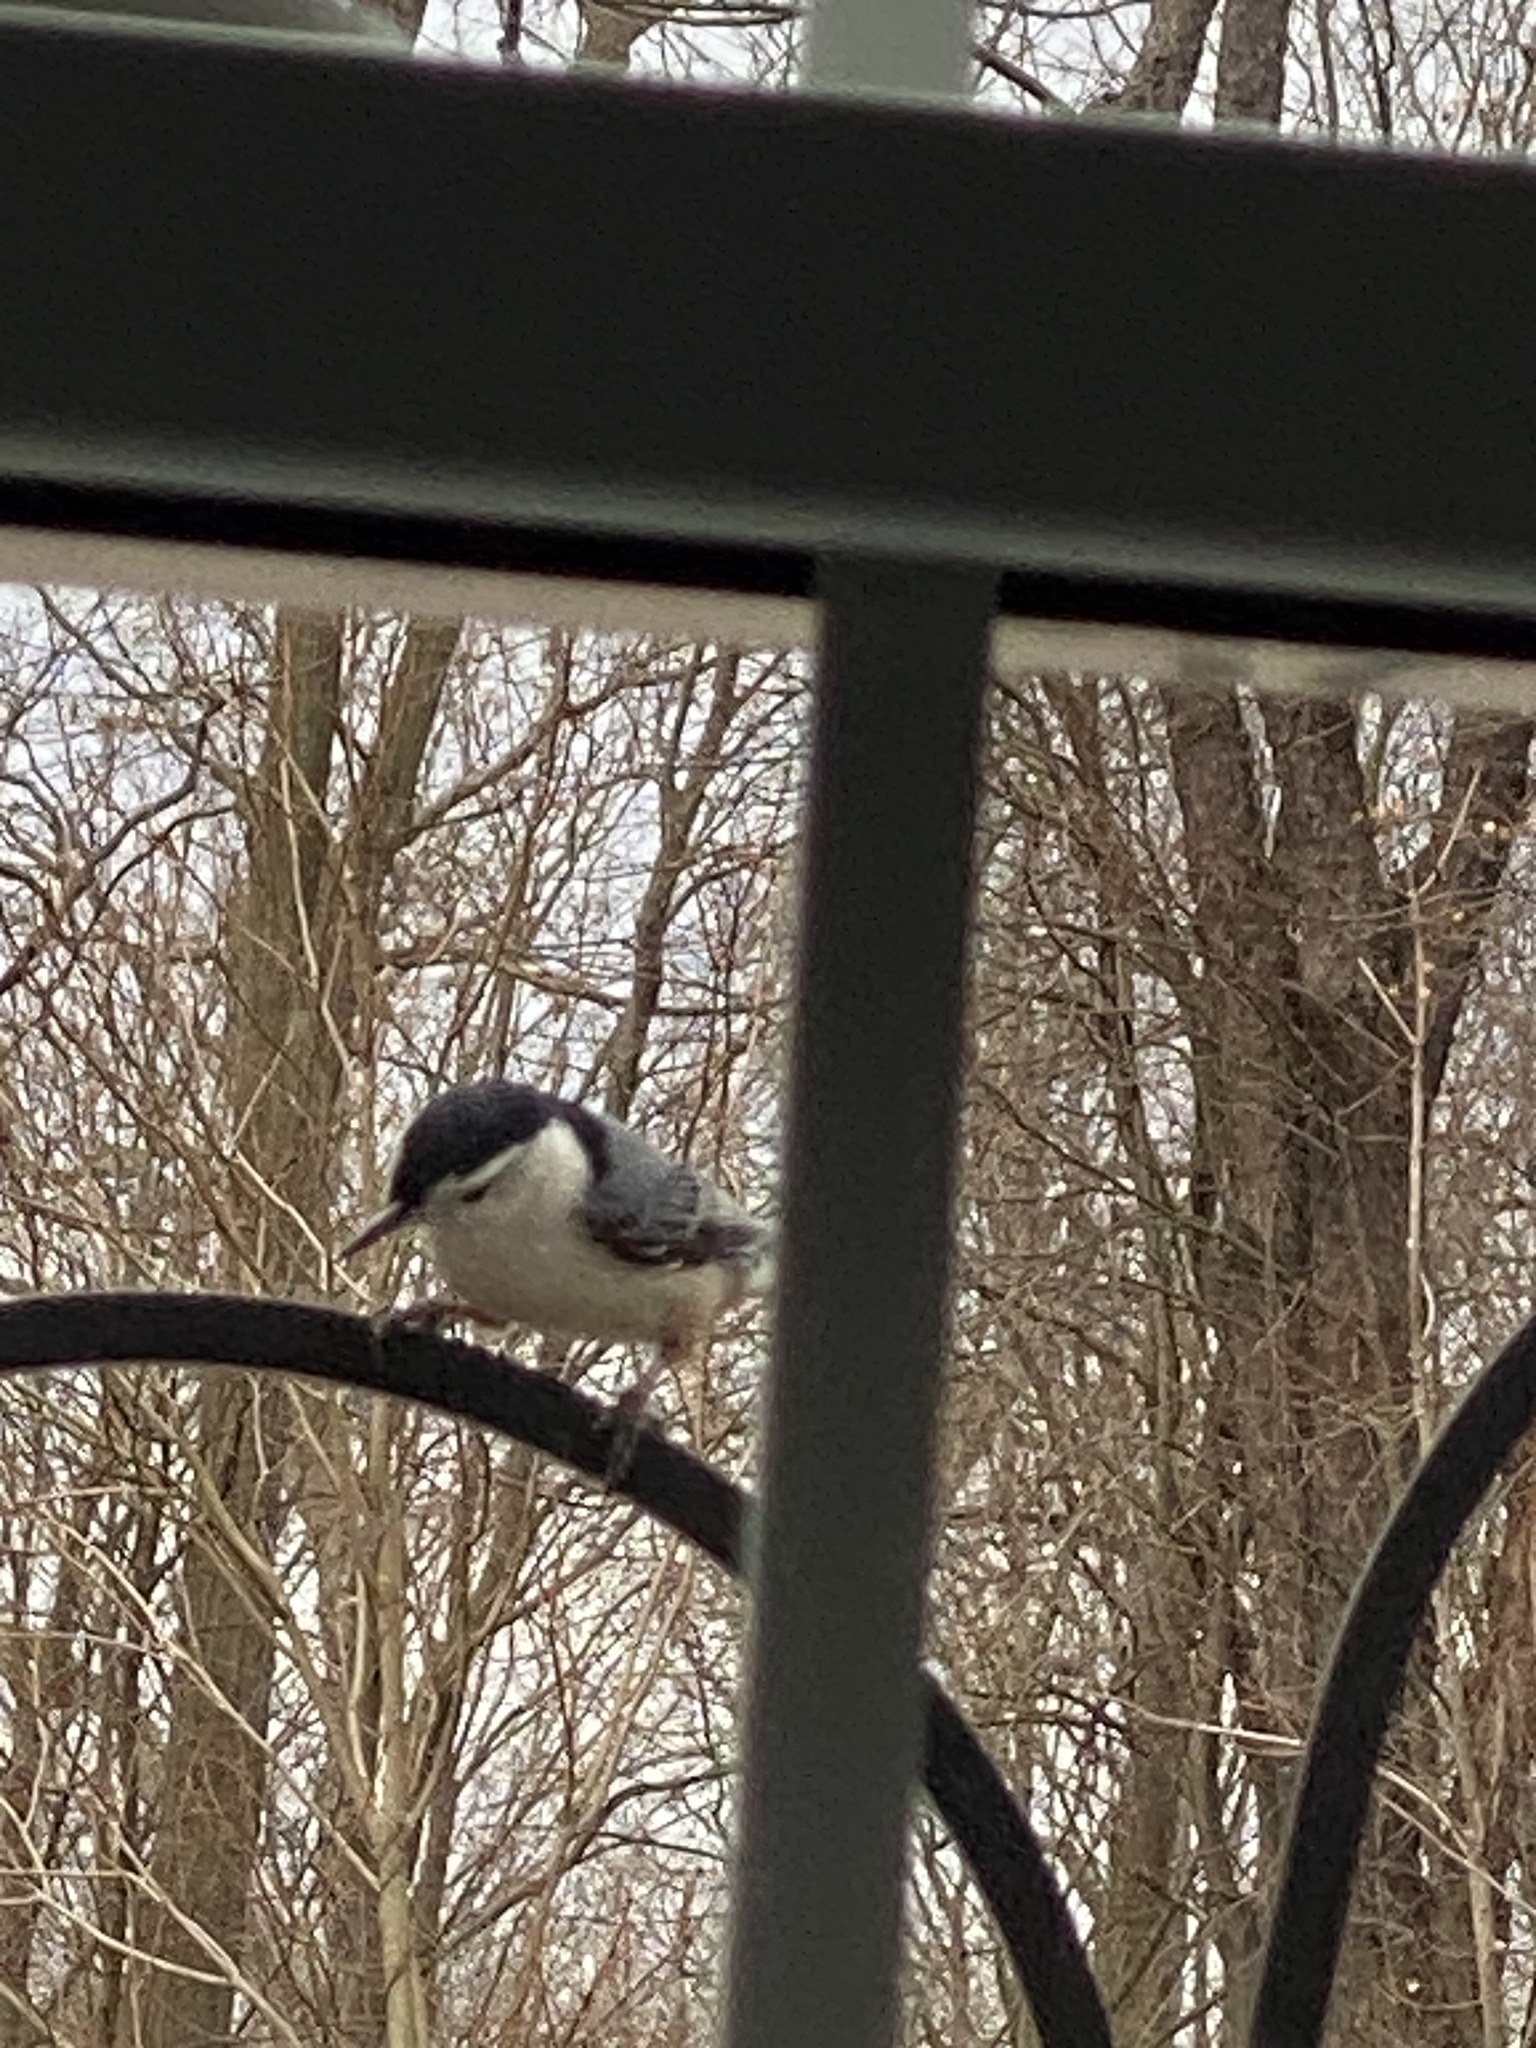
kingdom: Animalia
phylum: Chordata
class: Aves
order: Passeriformes
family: Sittidae
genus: Sitta
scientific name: Sitta carolinensis
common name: White-breasted nuthatch
